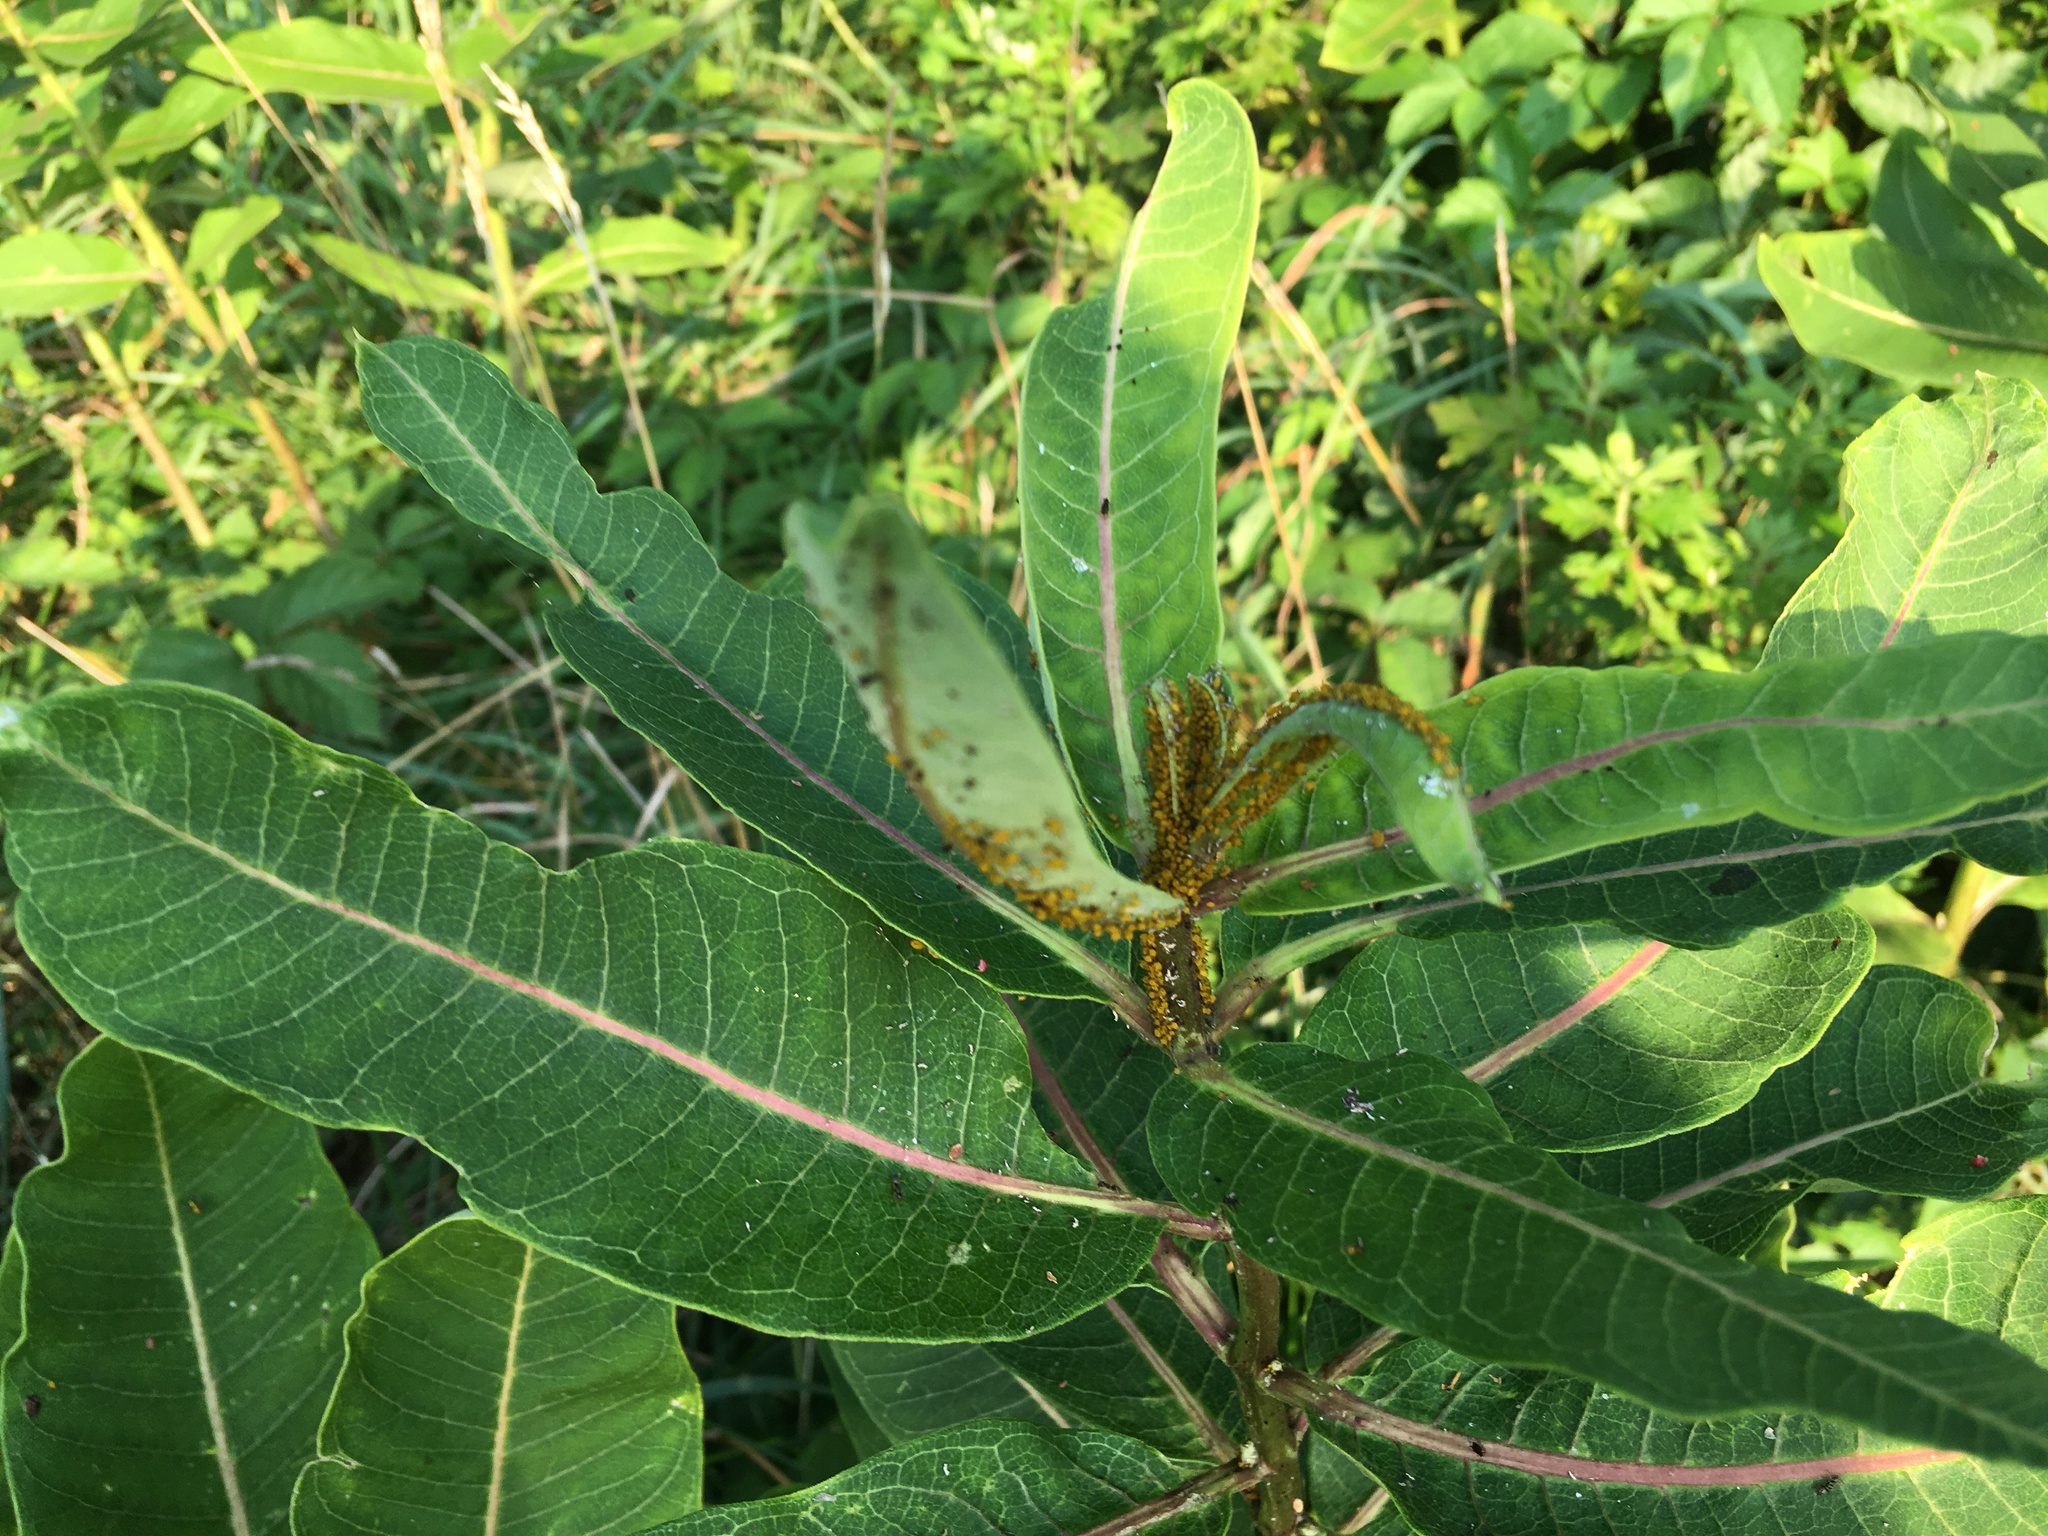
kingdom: Plantae
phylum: Tracheophyta
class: Magnoliopsida
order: Gentianales
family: Apocynaceae
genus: Asclepias
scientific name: Asclepias syriaca
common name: Common milkweed
